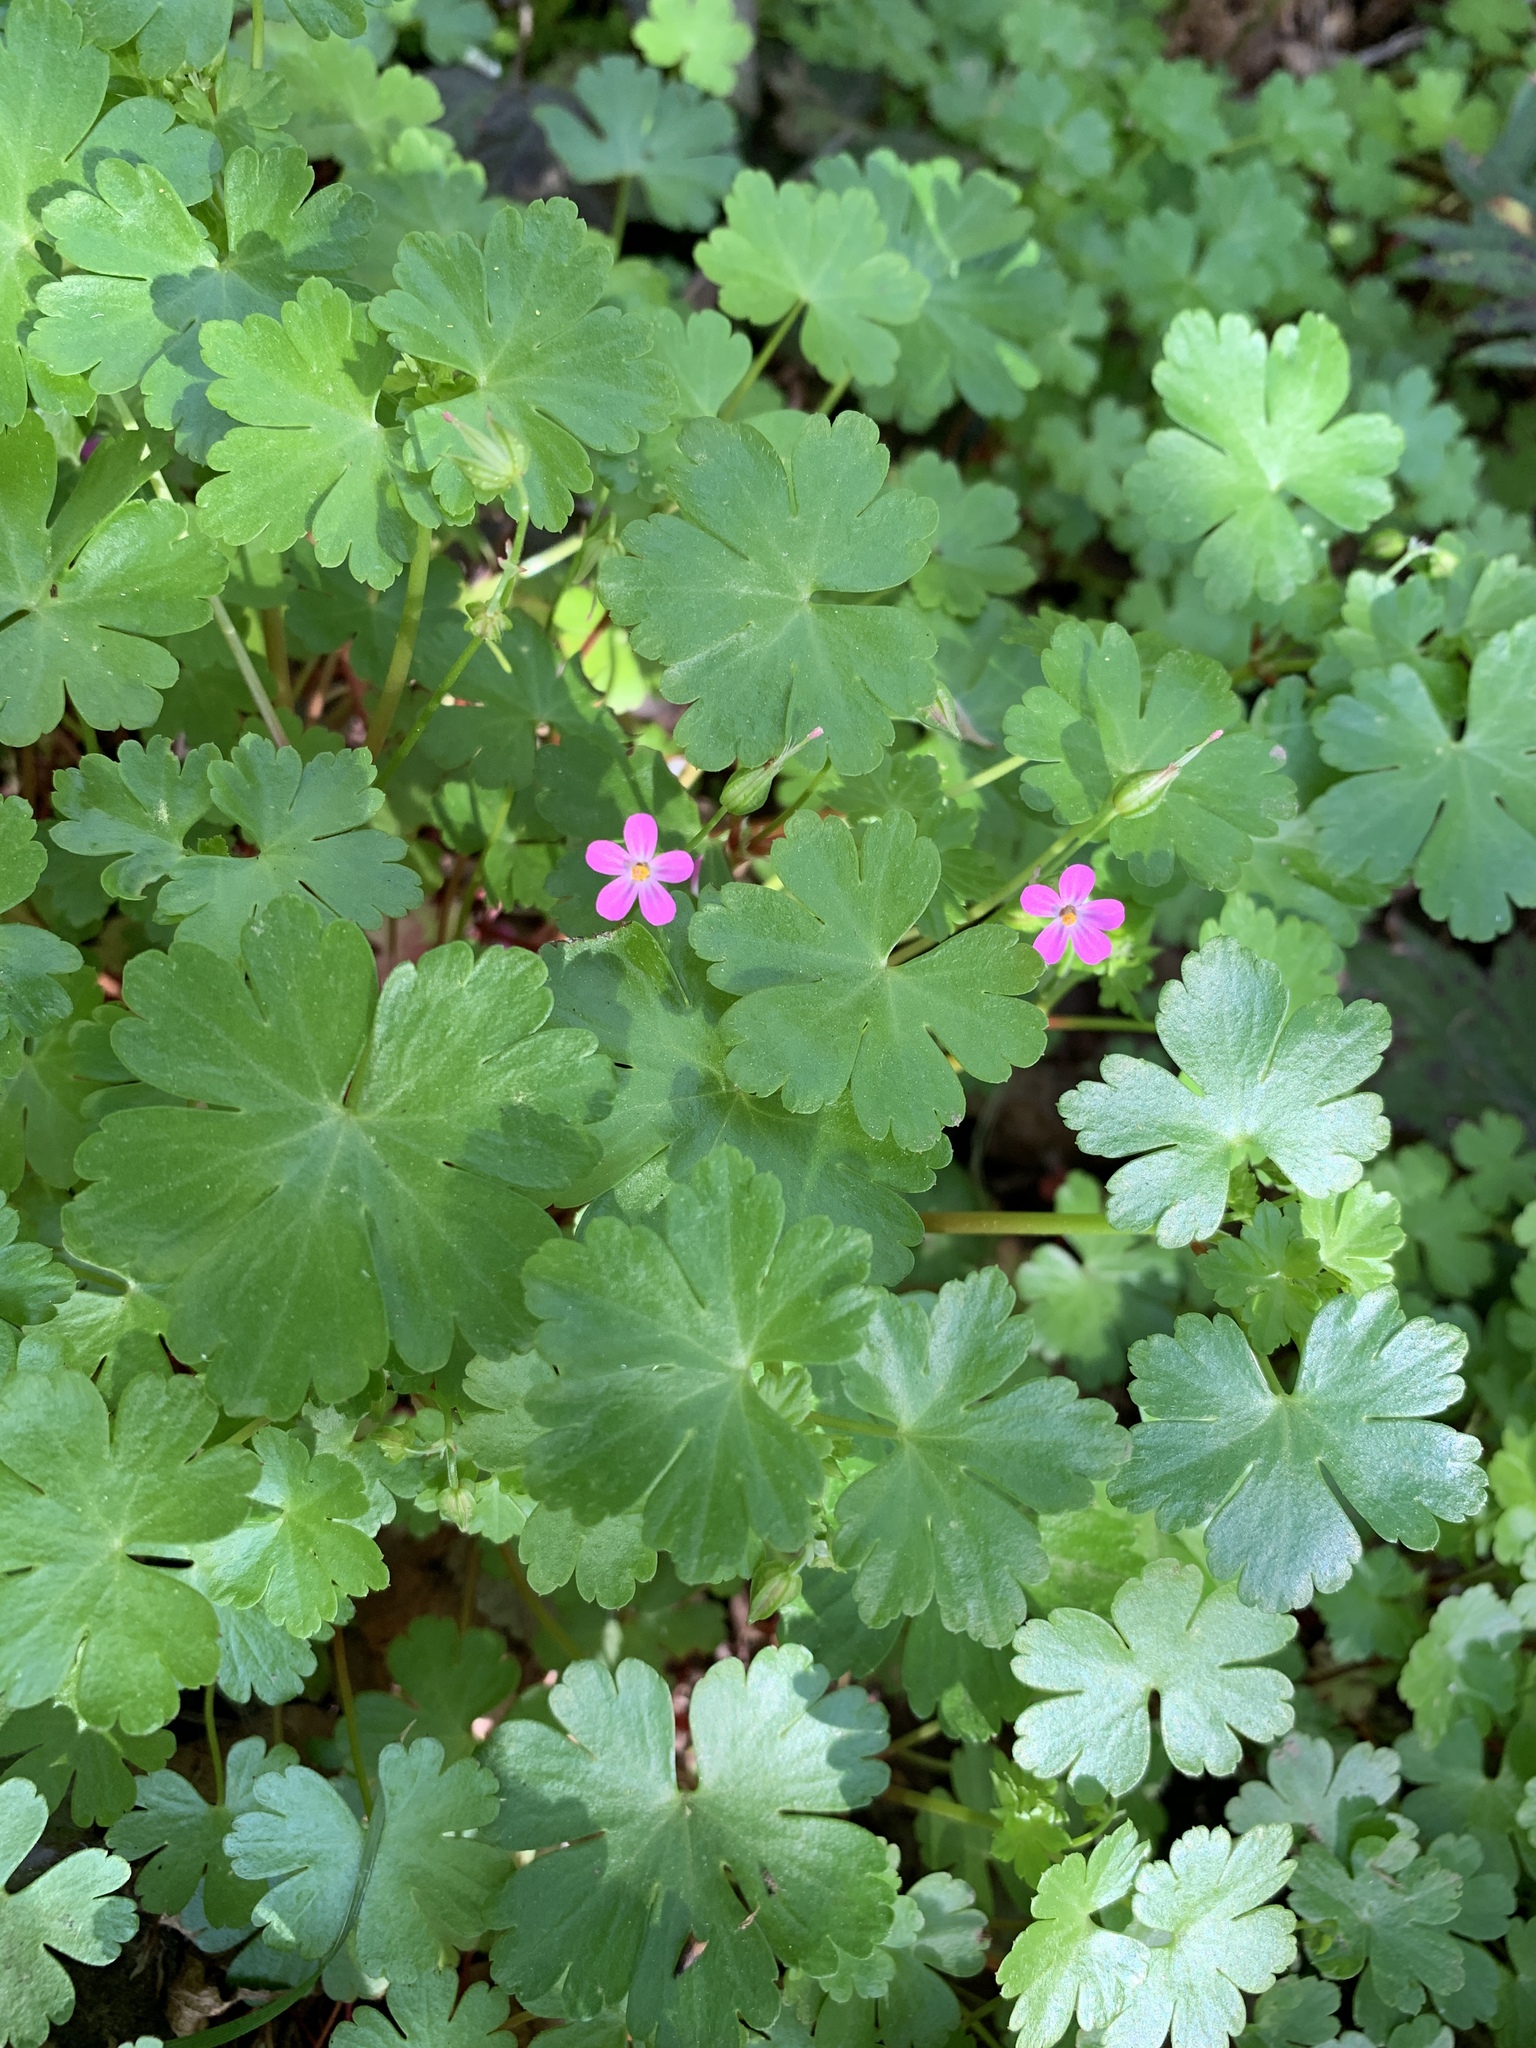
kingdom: Plantae
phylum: Tracheophyta
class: Magnoliopsida
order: Geraniales
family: Geraniaceae
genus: Geranium
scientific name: Geranium lucidum
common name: Shining crane's-bill
